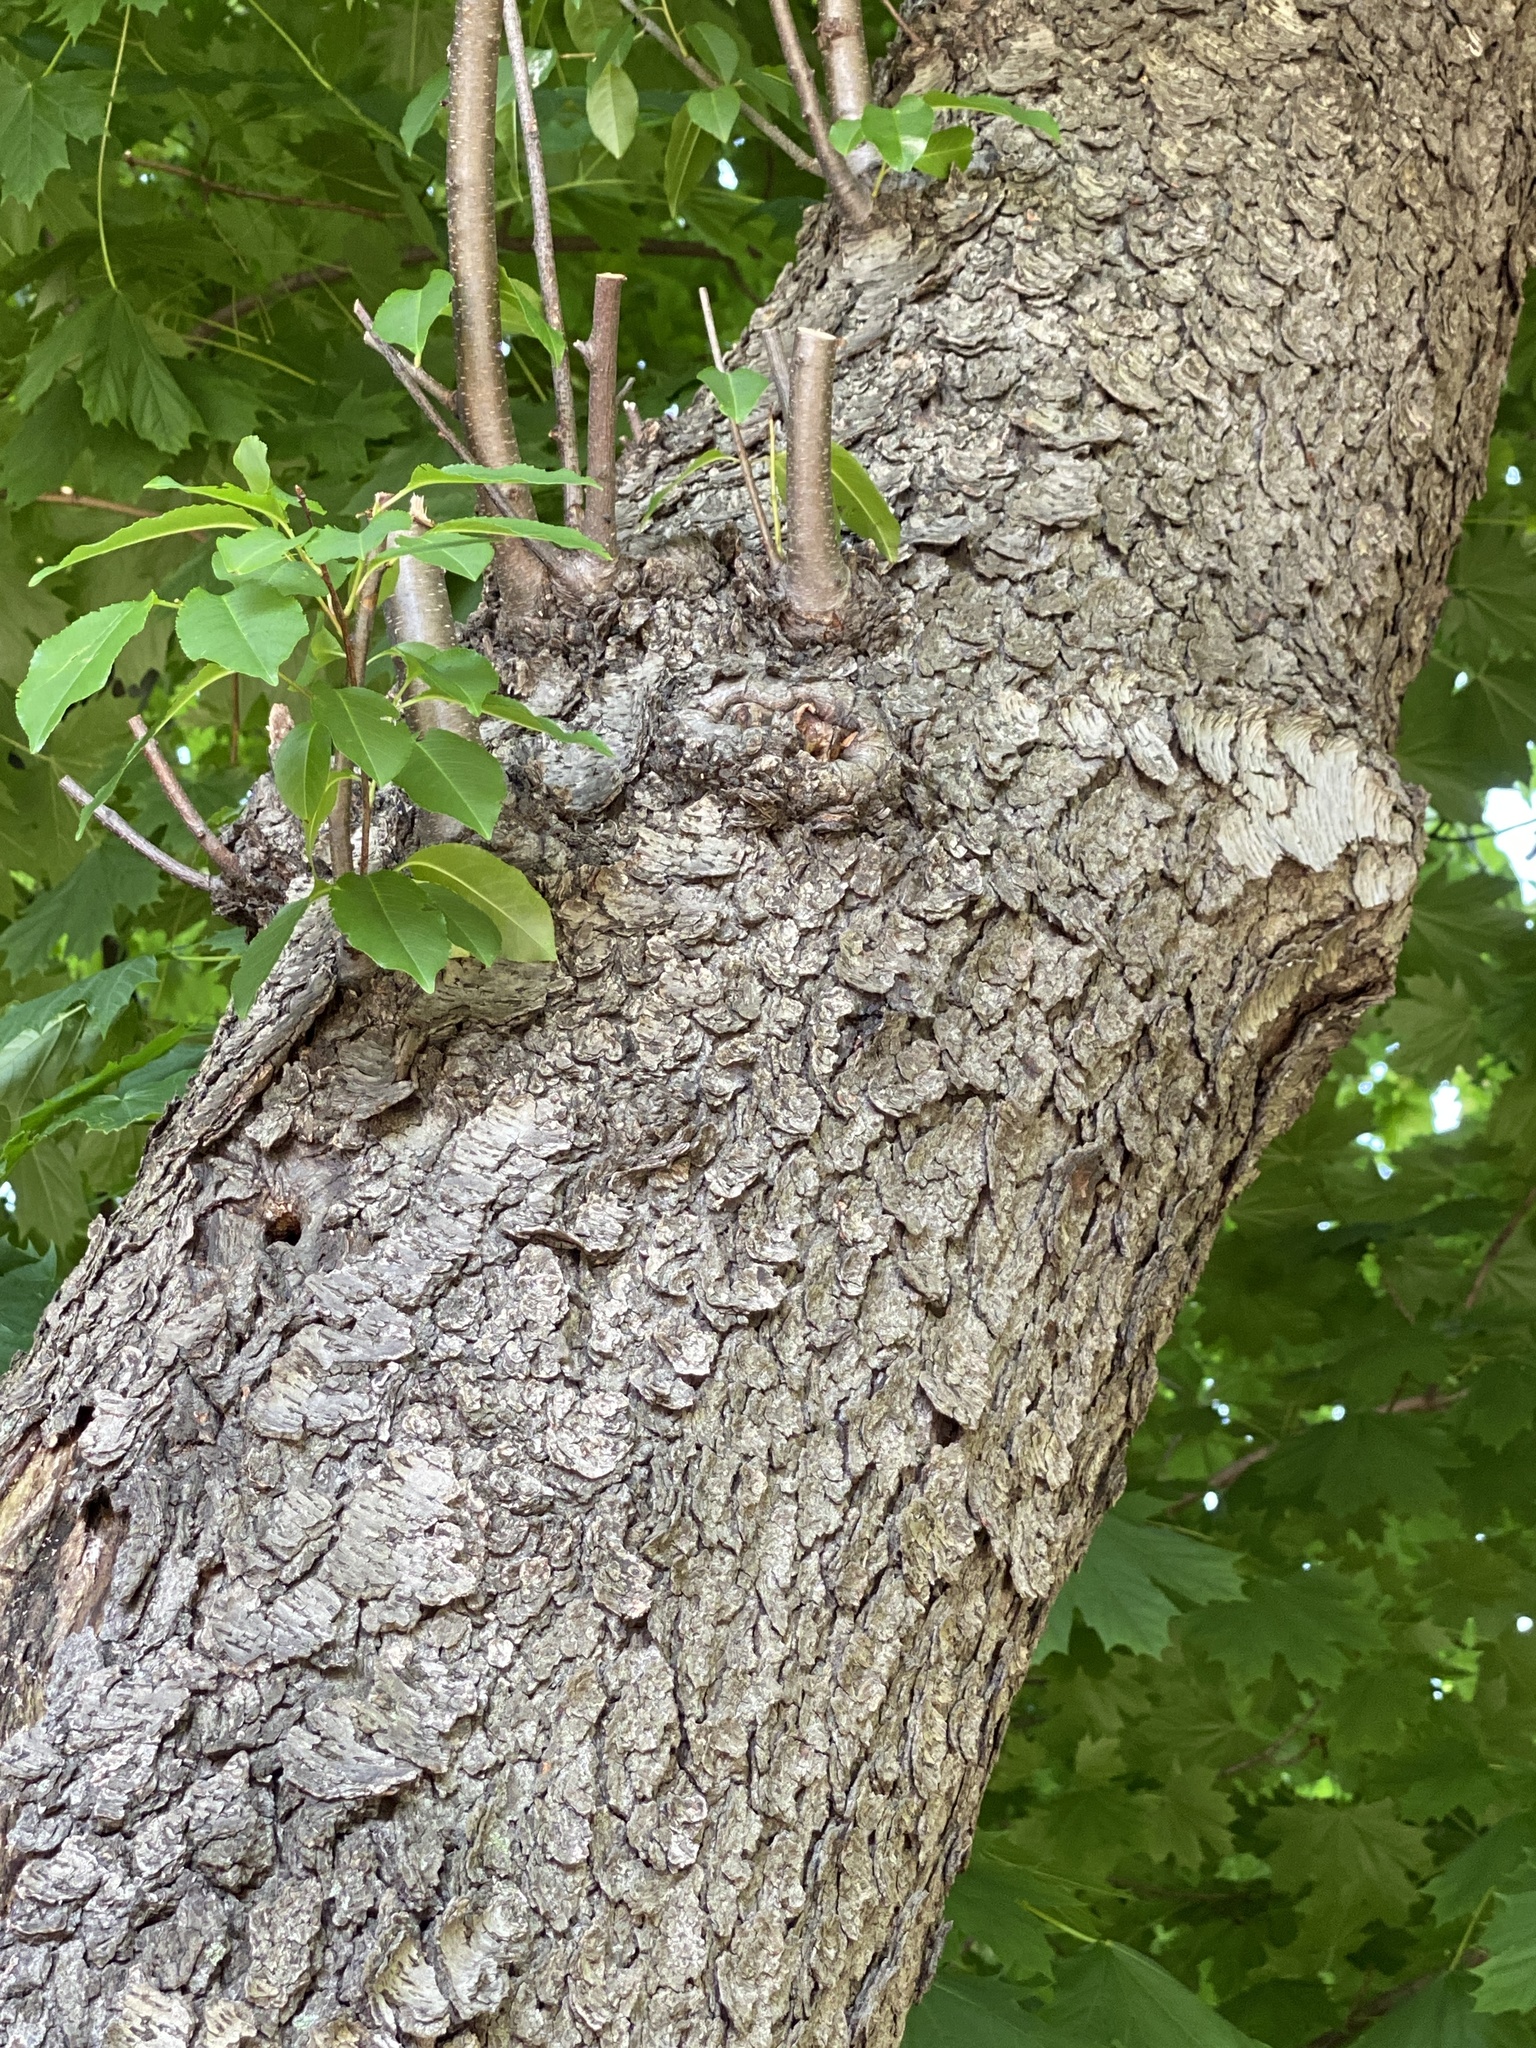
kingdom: Plantae
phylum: Tracheophyta
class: Magnoliopsida
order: Rosales
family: Rosaceae
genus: Prunus
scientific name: Prunus serotina
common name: Black cherry
